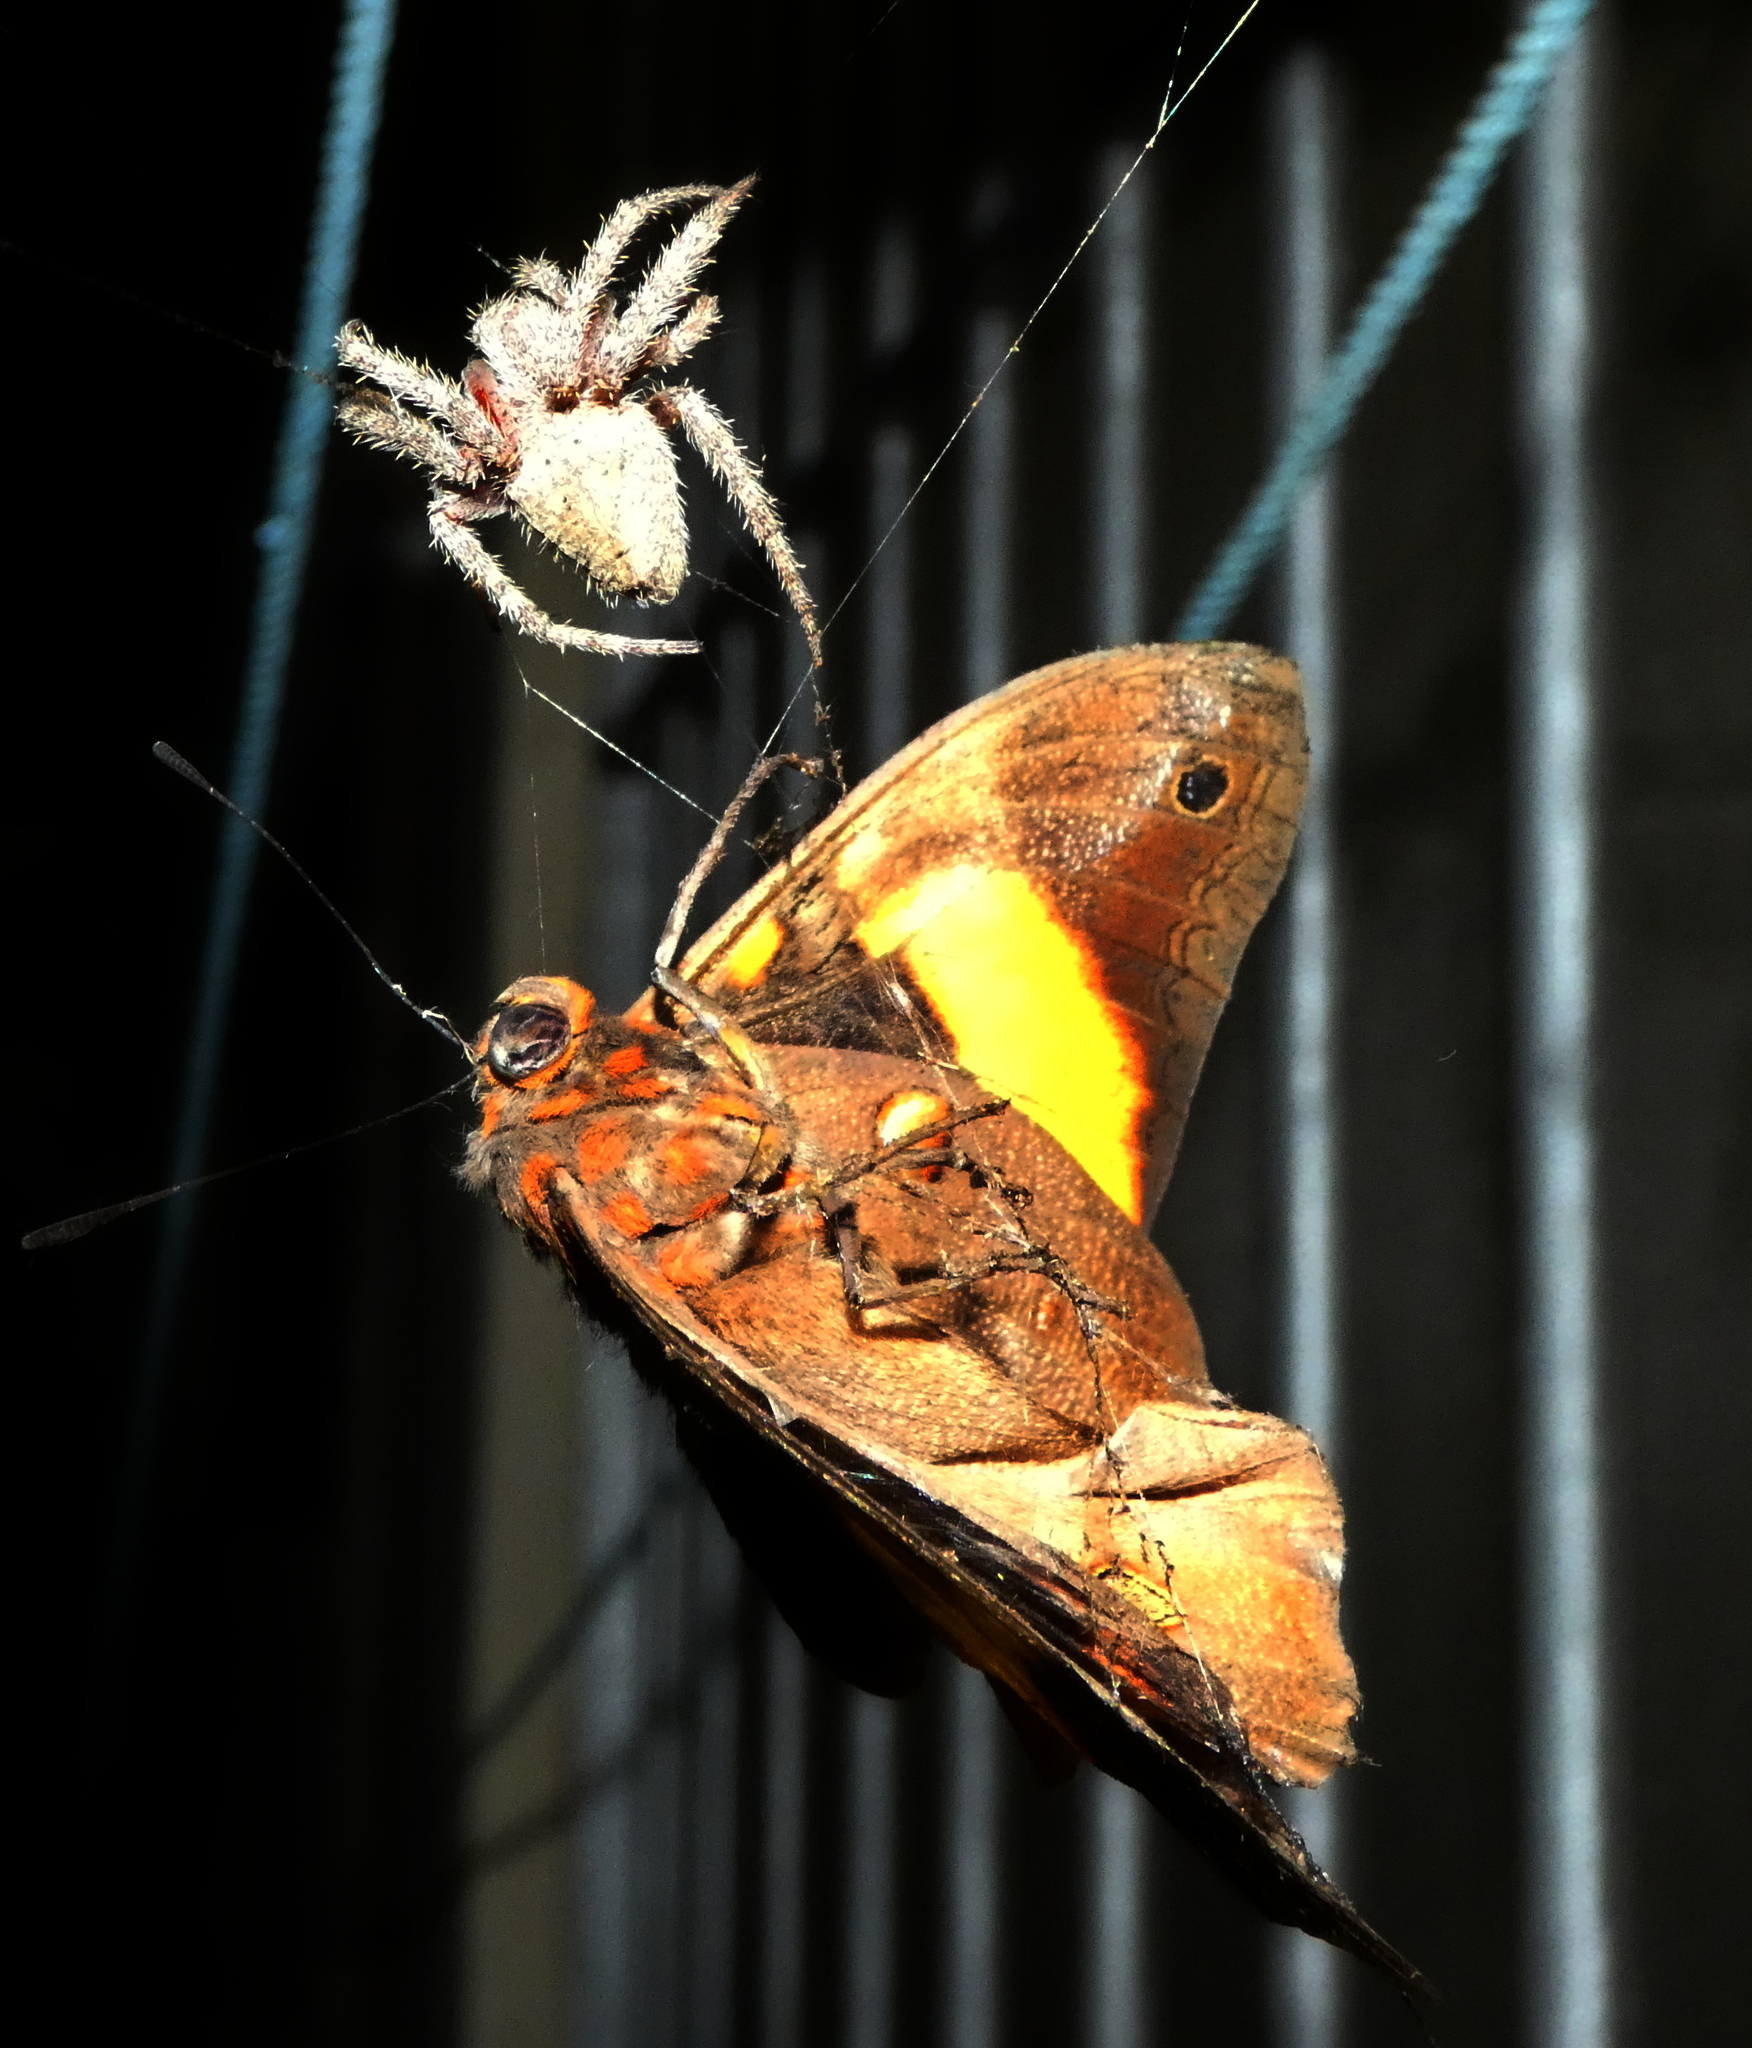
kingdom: Animalia
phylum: Arthropoda
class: Arachnida
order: Araneae
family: Araneidae
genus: Eriophora
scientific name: Eriophora edax
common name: Orb weavers
